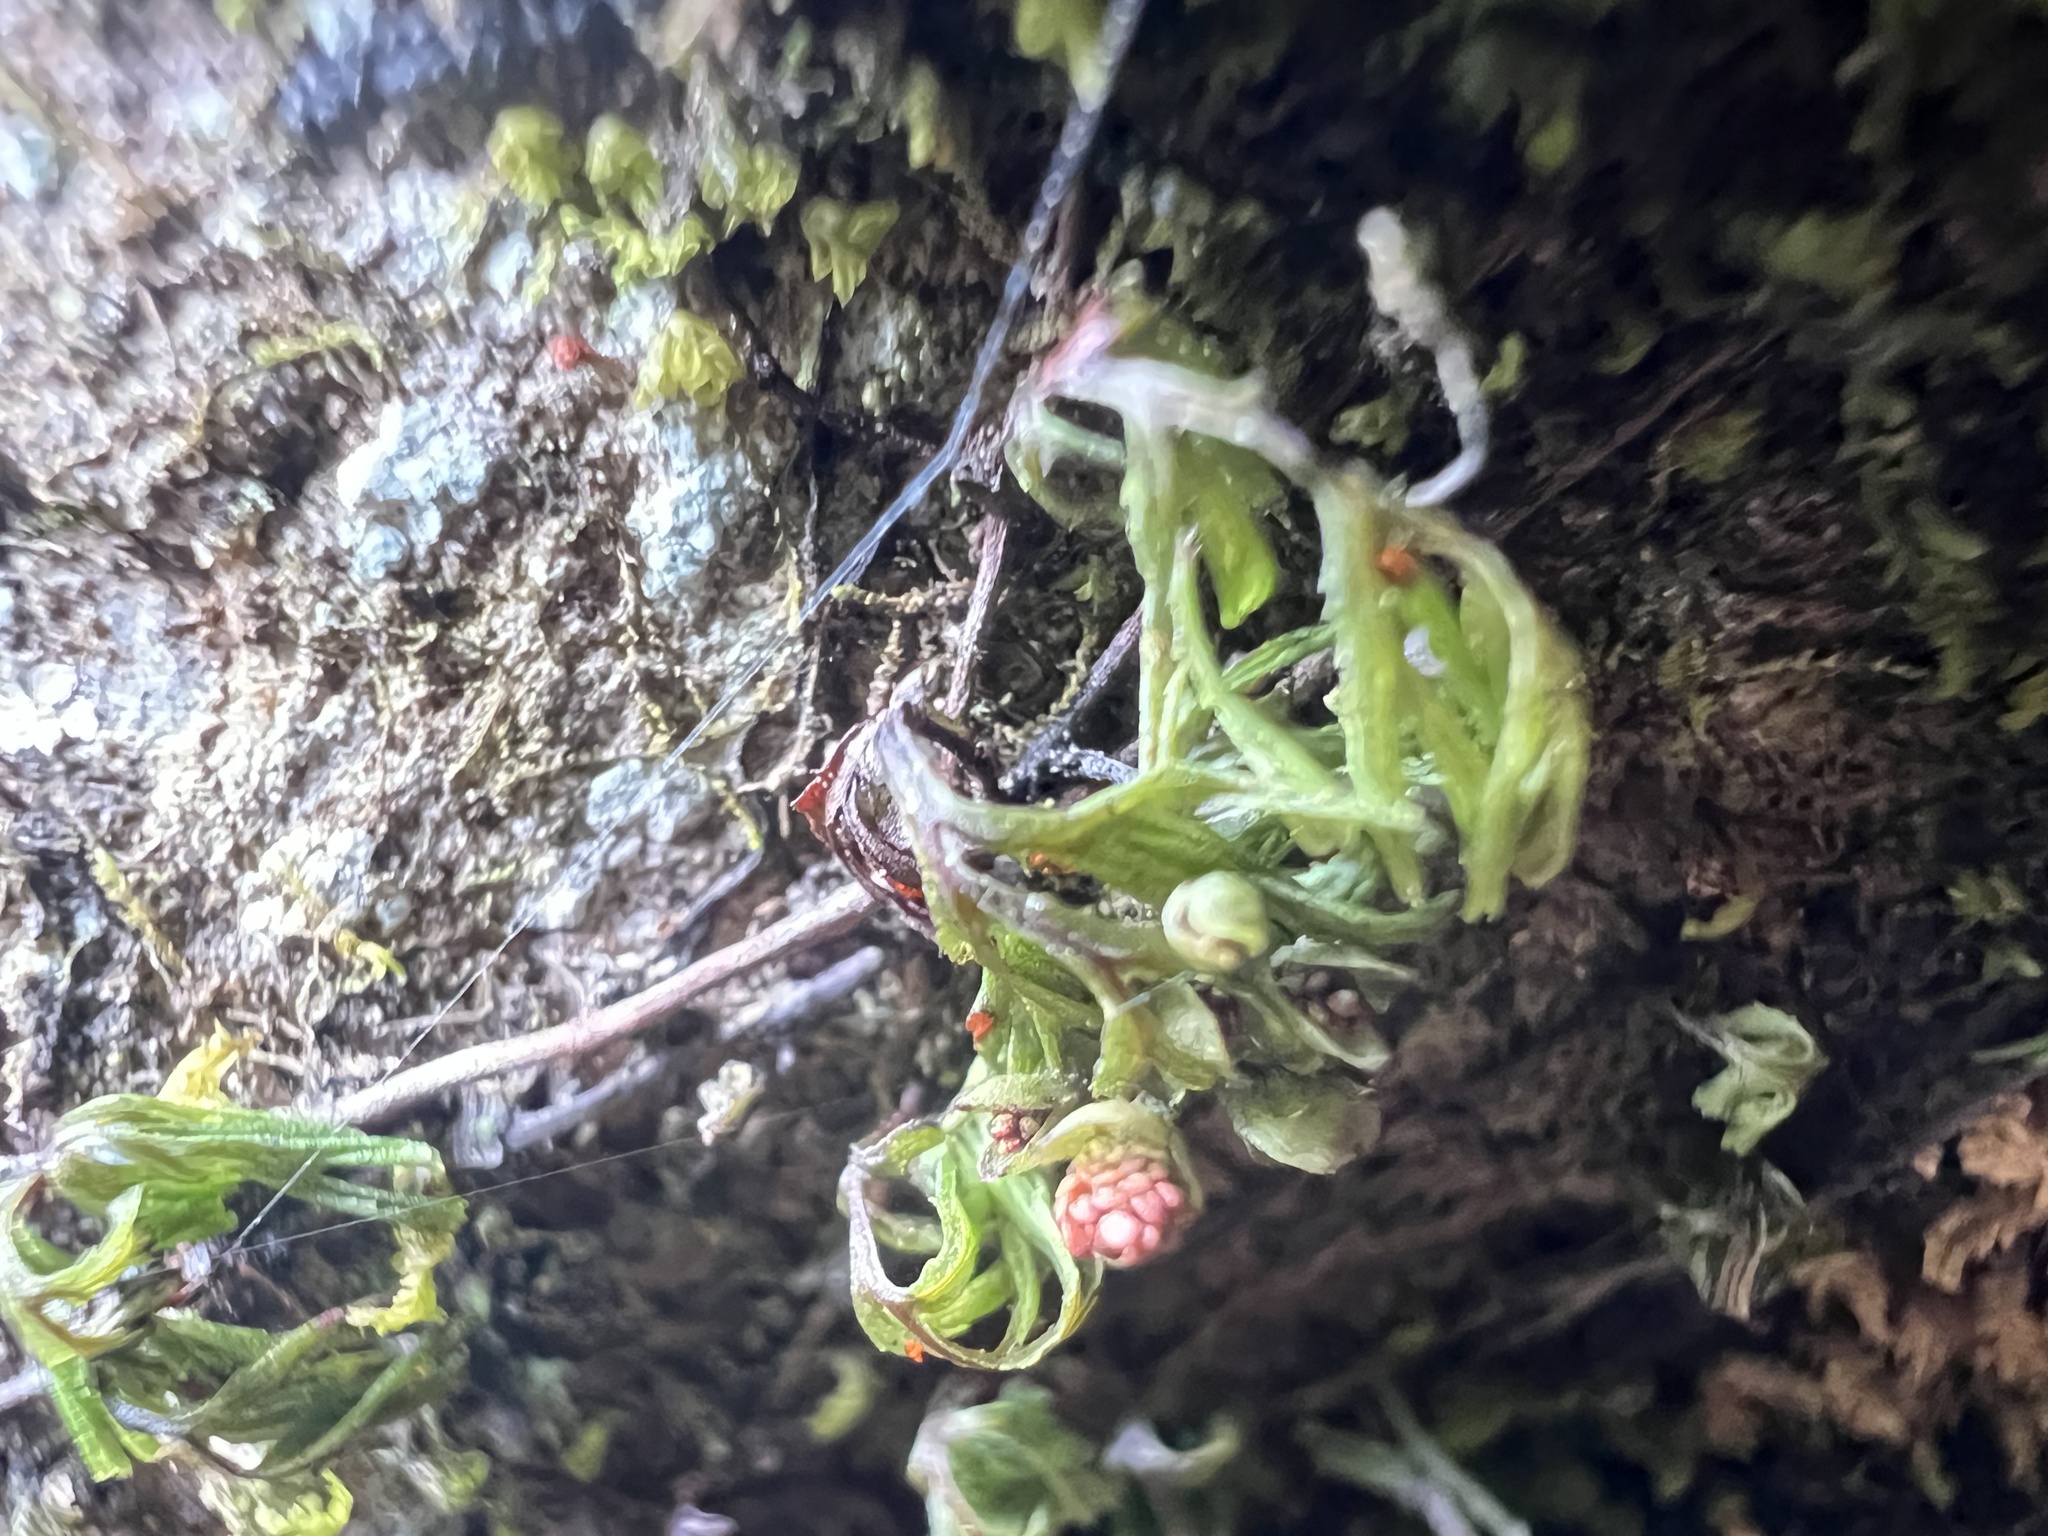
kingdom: Plantae
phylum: Tracheophyta
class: Polypodiopsida
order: Hymenophyllales
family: Hymenophyllaceae
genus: Hymenophyllum
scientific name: Hymenophyllum cupressiforme
